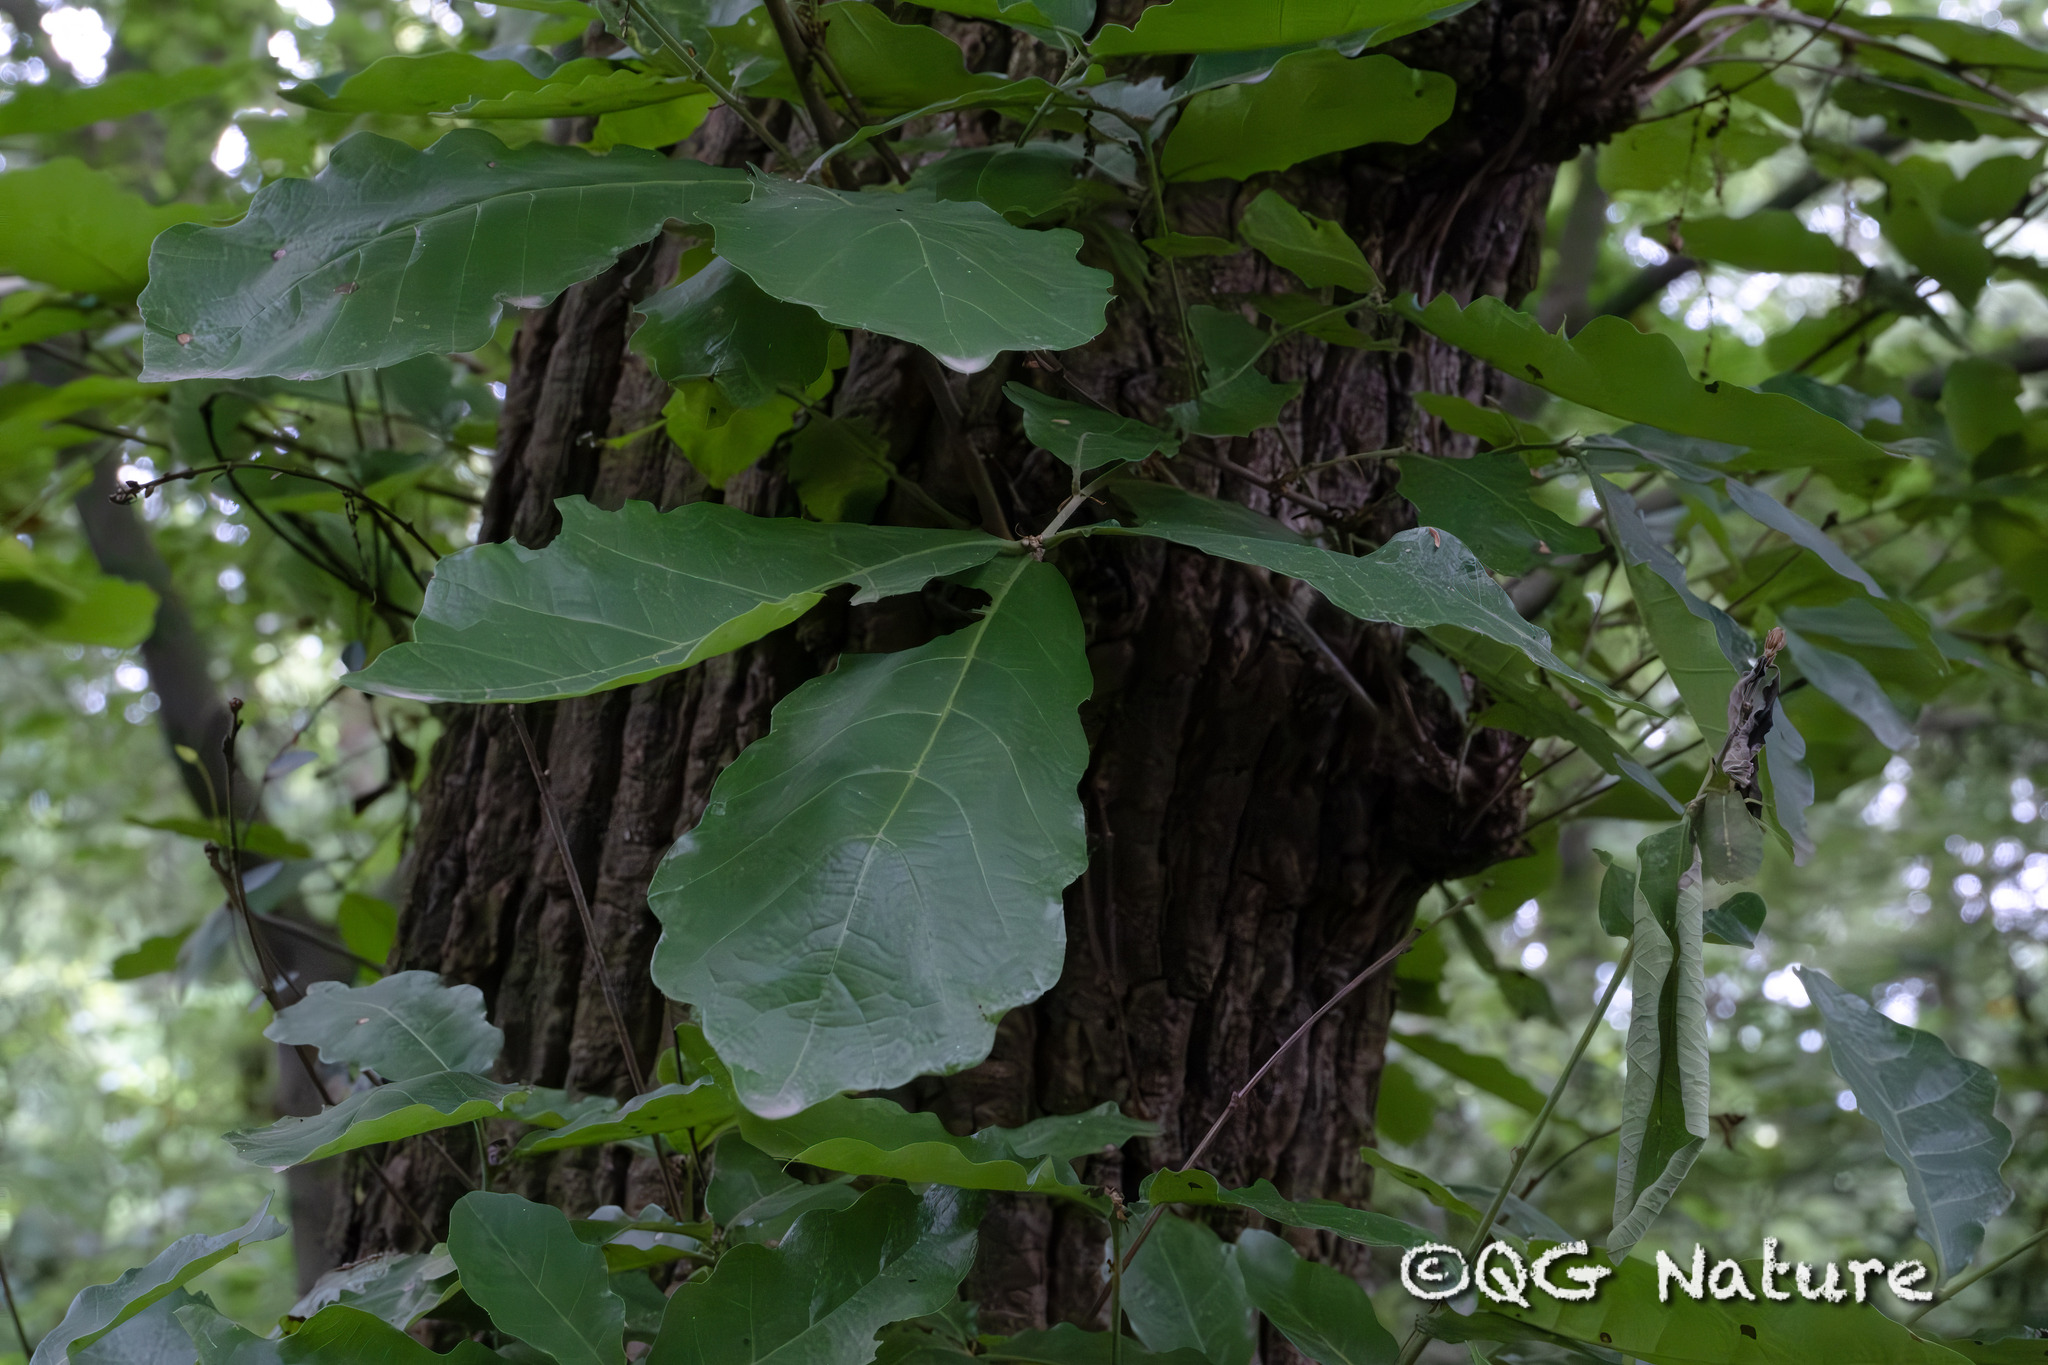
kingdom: Plantae
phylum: Tracheophyta
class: Magnoliopsida
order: Fagales
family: Fagaceae
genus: Quercus
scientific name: Quercus fabrei
